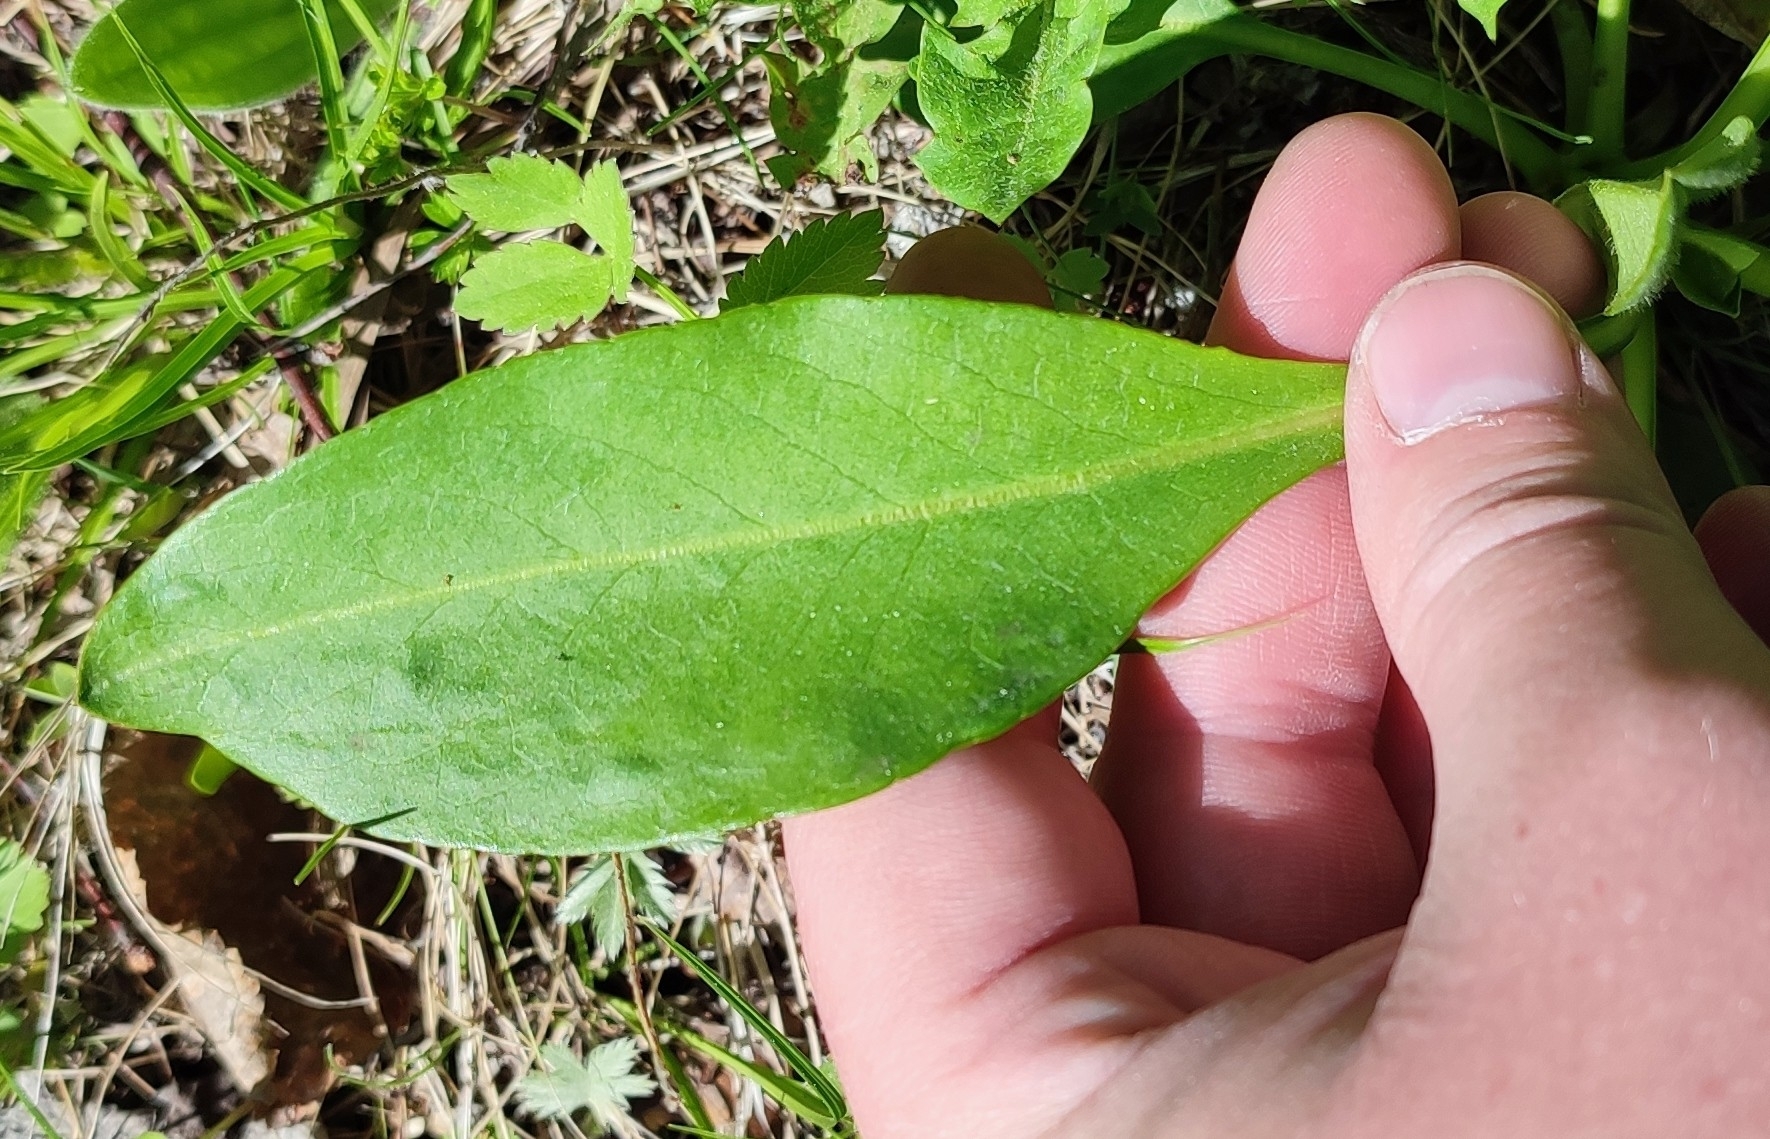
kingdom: Plantae
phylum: Tracheophyta
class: Magnoliopsida
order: Dipsacales
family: Caprifoliaceae
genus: Succisa
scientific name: Succisa pratensis
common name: Devil's-bit
